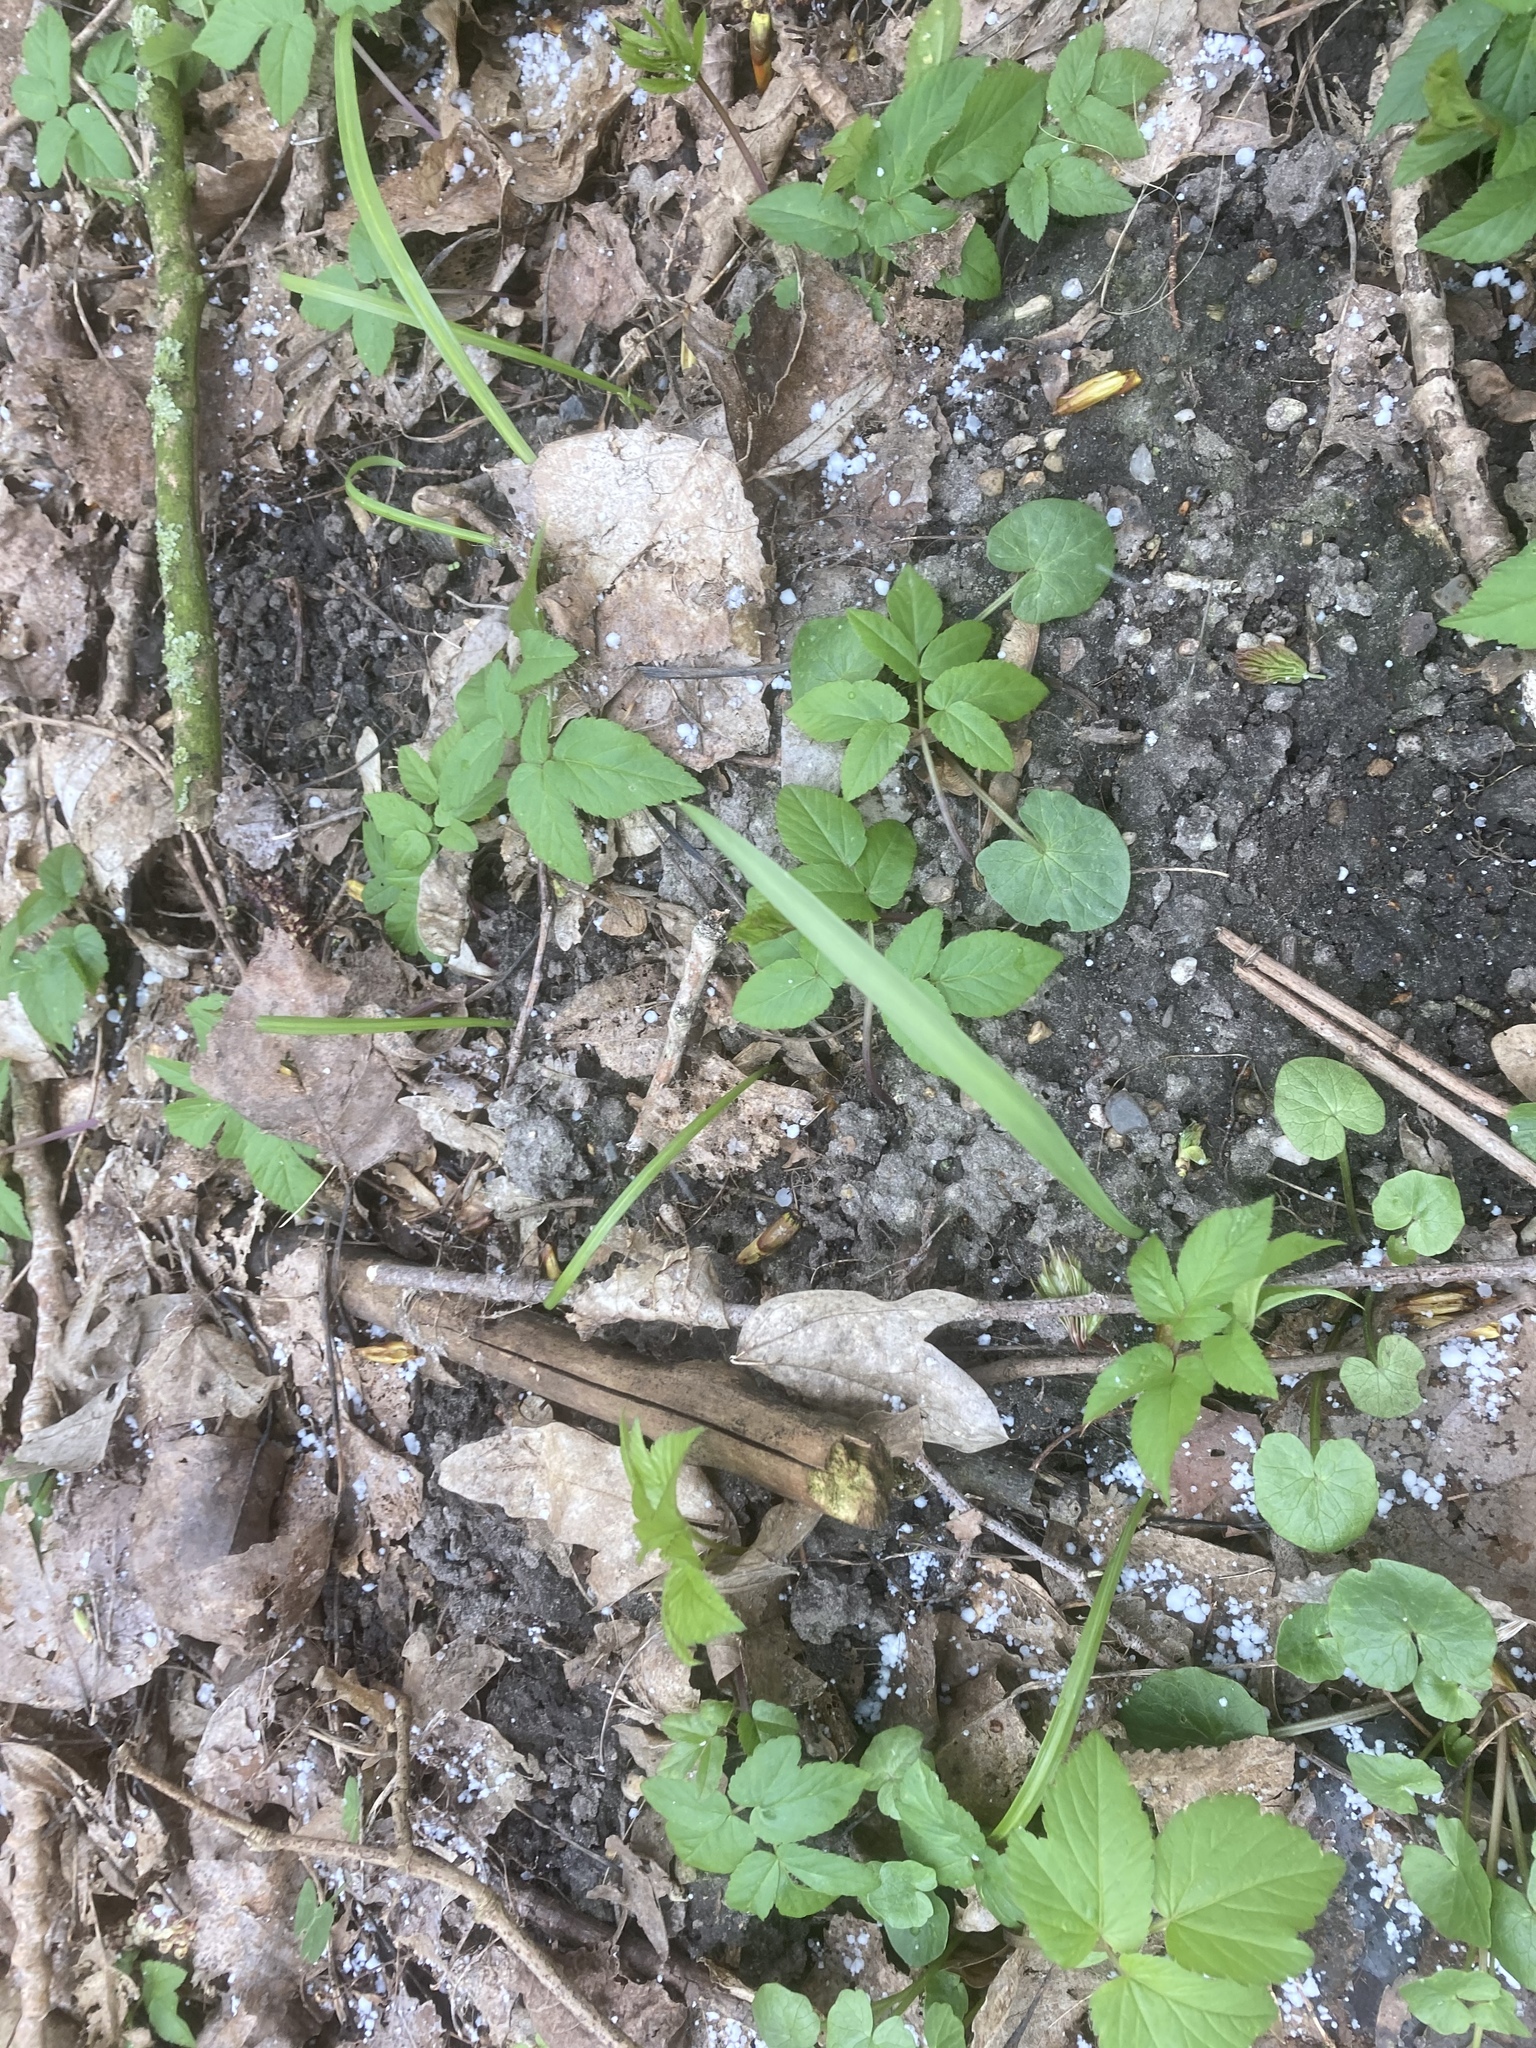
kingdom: Plantae
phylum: Tracheophyta
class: Magnoliopsida
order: Apiales
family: Apiaceae
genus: Aegopodium
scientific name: Aegopodium podagraria
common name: Ground-elder
